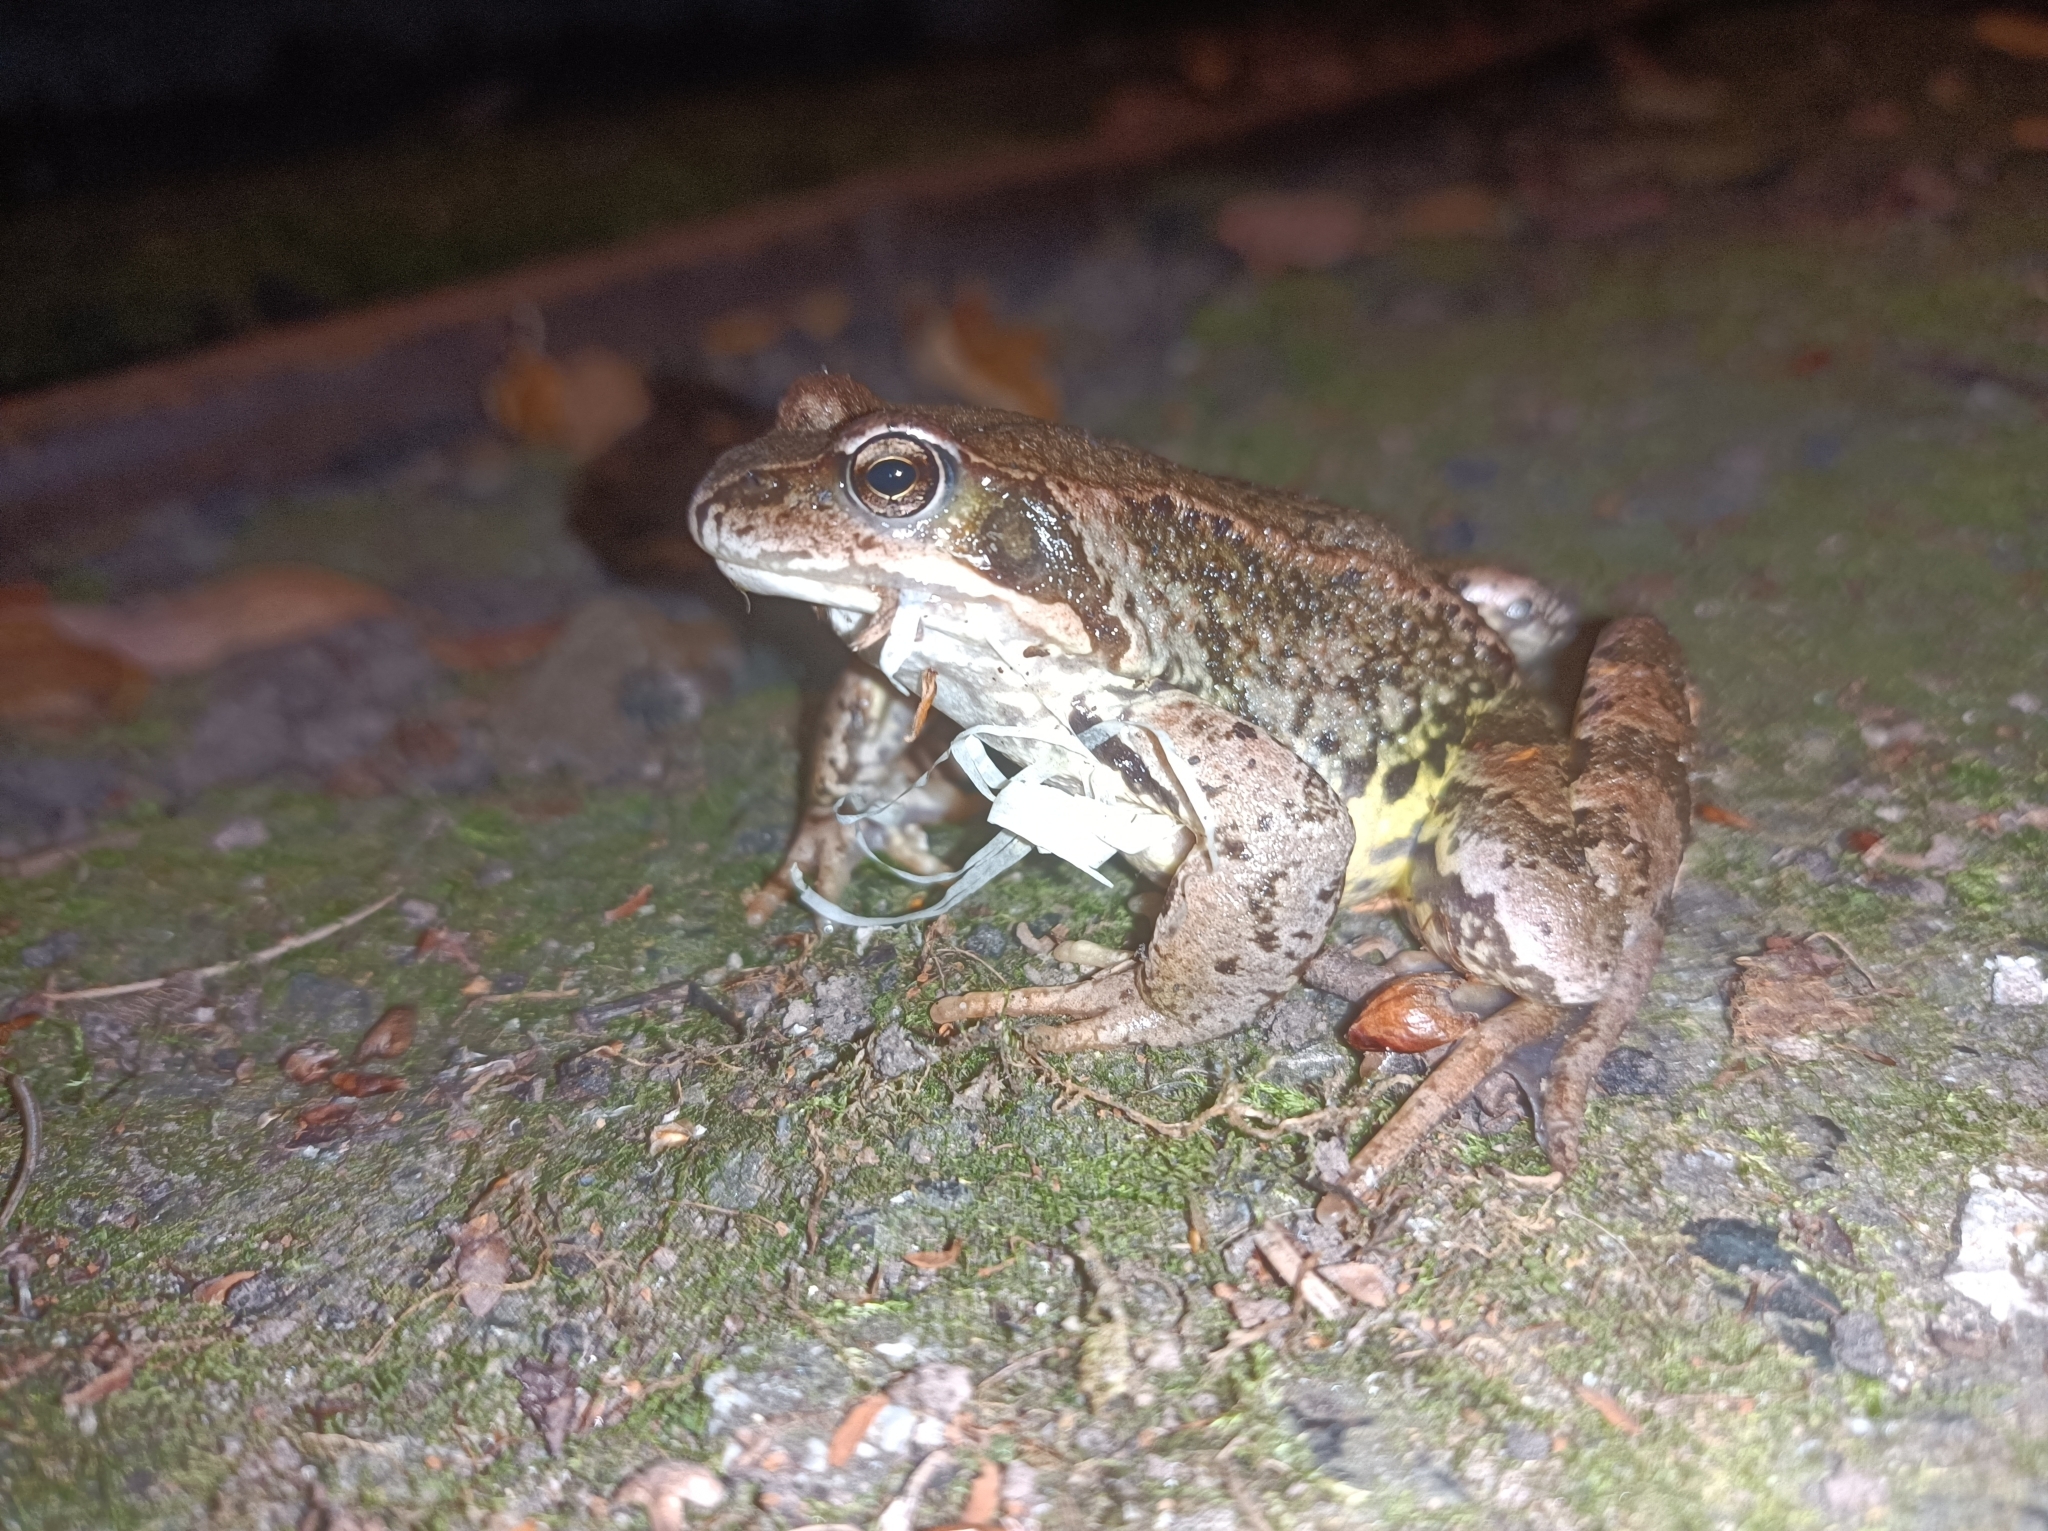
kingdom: Animalia
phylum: Chordata
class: Amphibia
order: Anura
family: Ranidae
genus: Rana
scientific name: Rana temporaria
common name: Common frog
